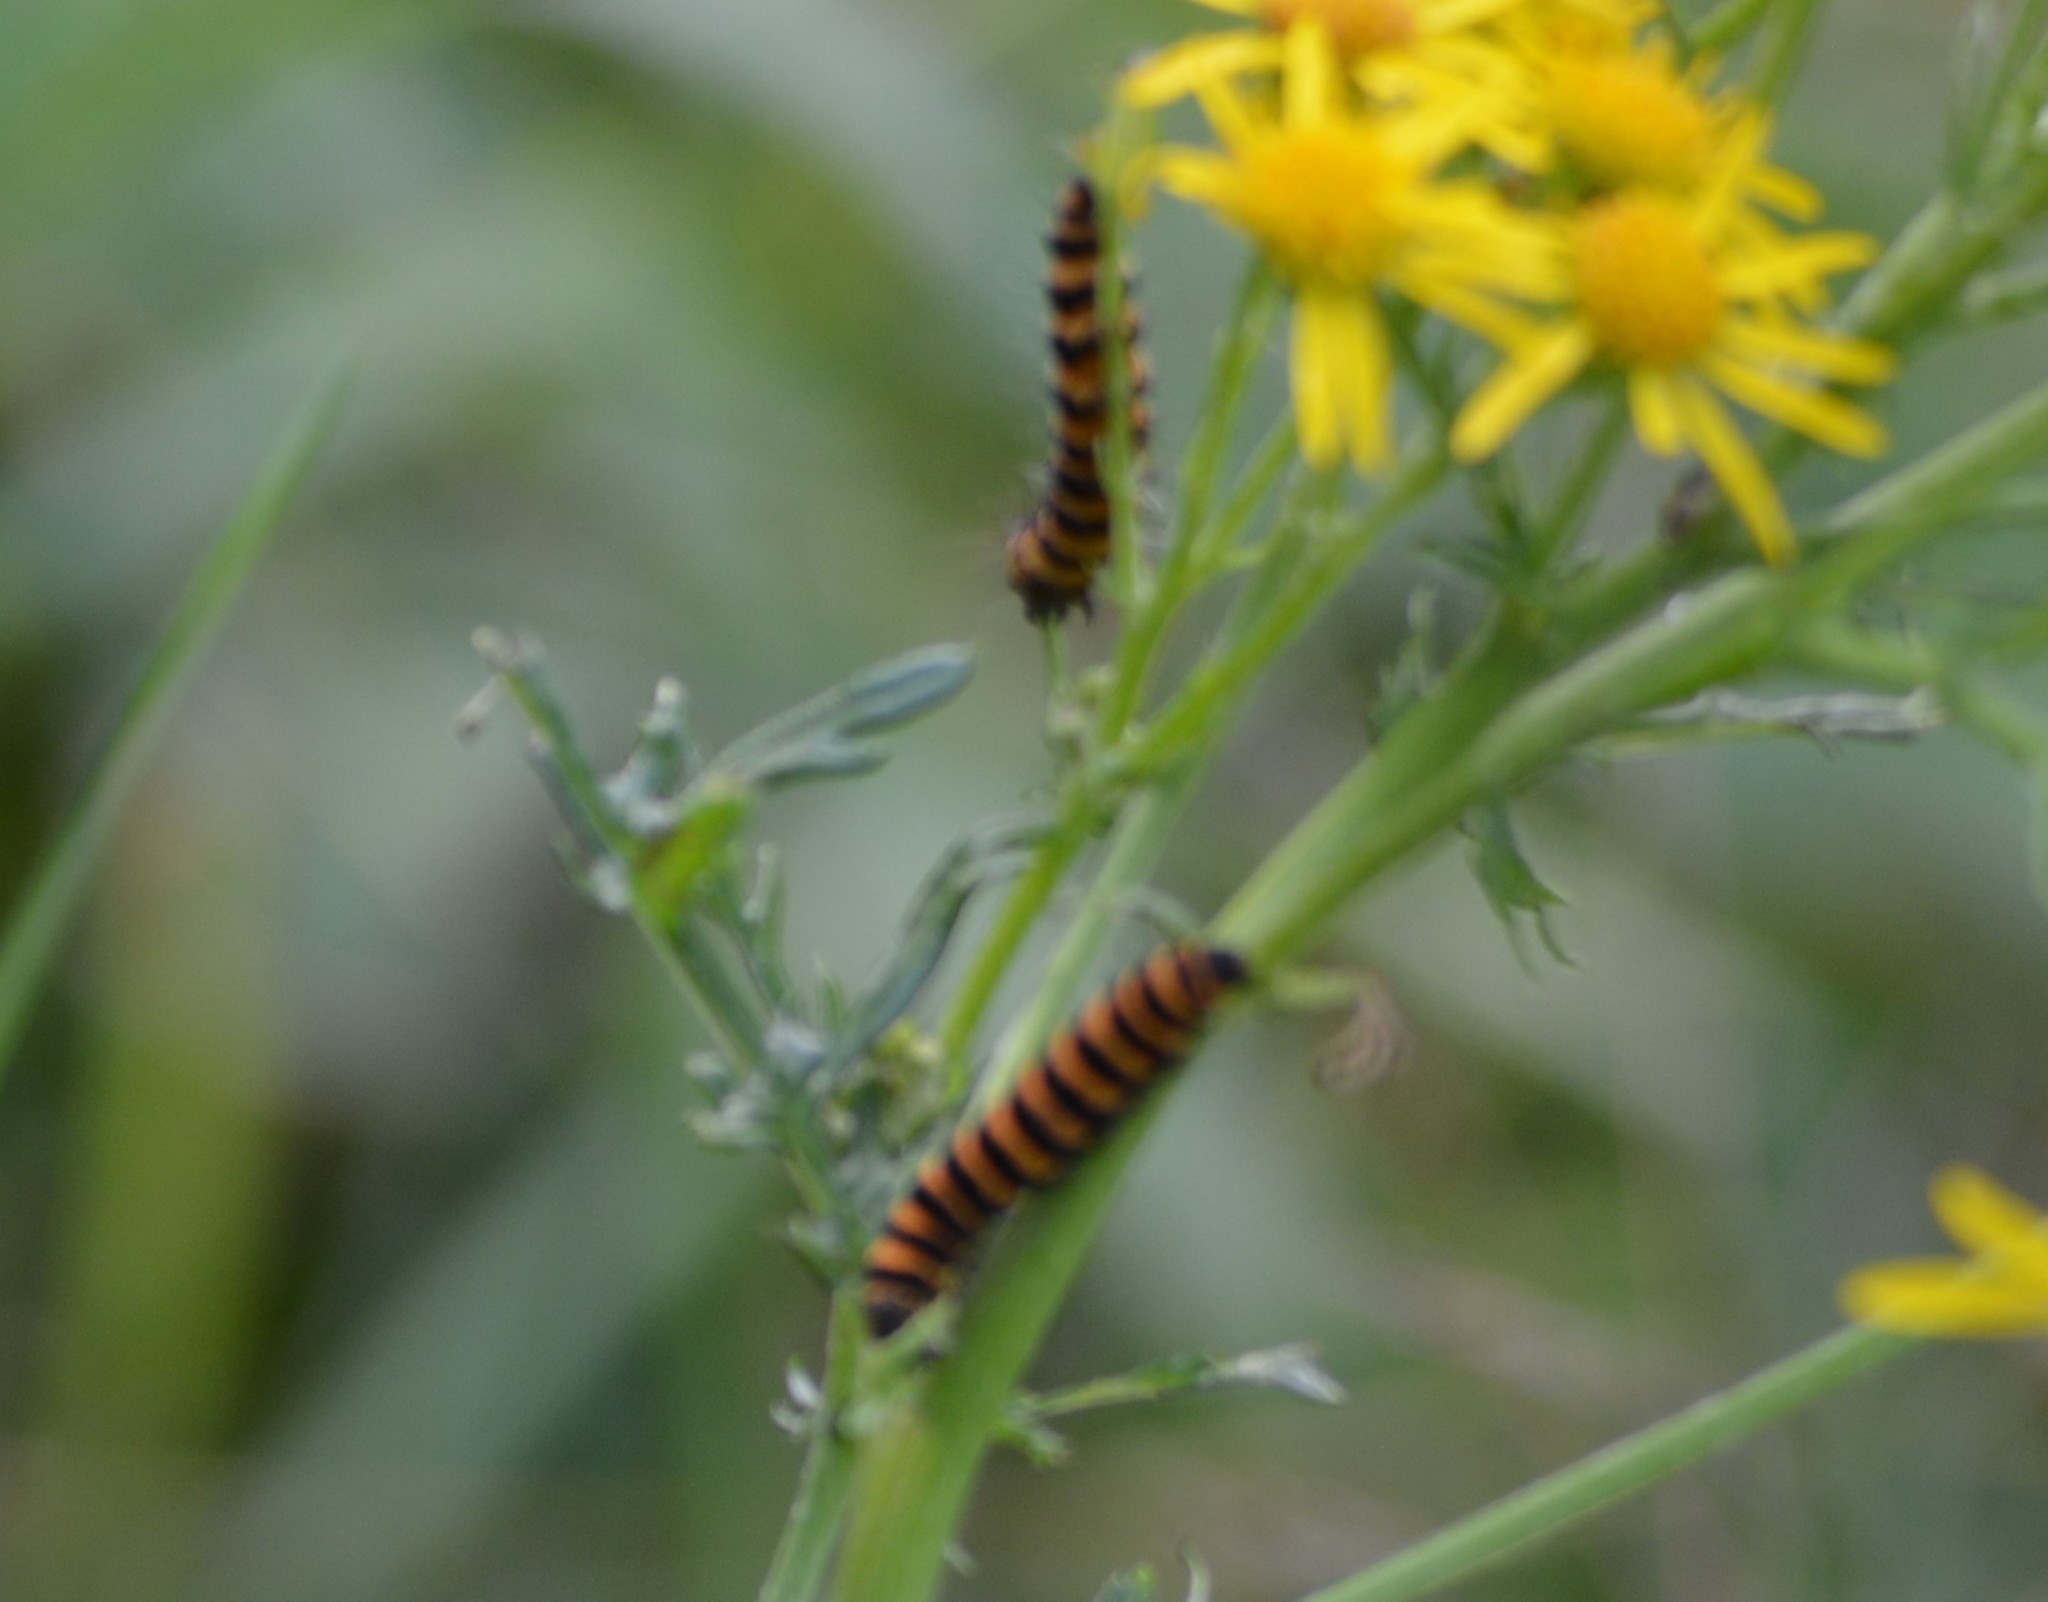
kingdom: Animalia
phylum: Arthropoda
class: Insecta
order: Lepidoptera
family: Erebidae
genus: Tyria
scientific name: Tyria jacobaeae
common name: Cinnabar
